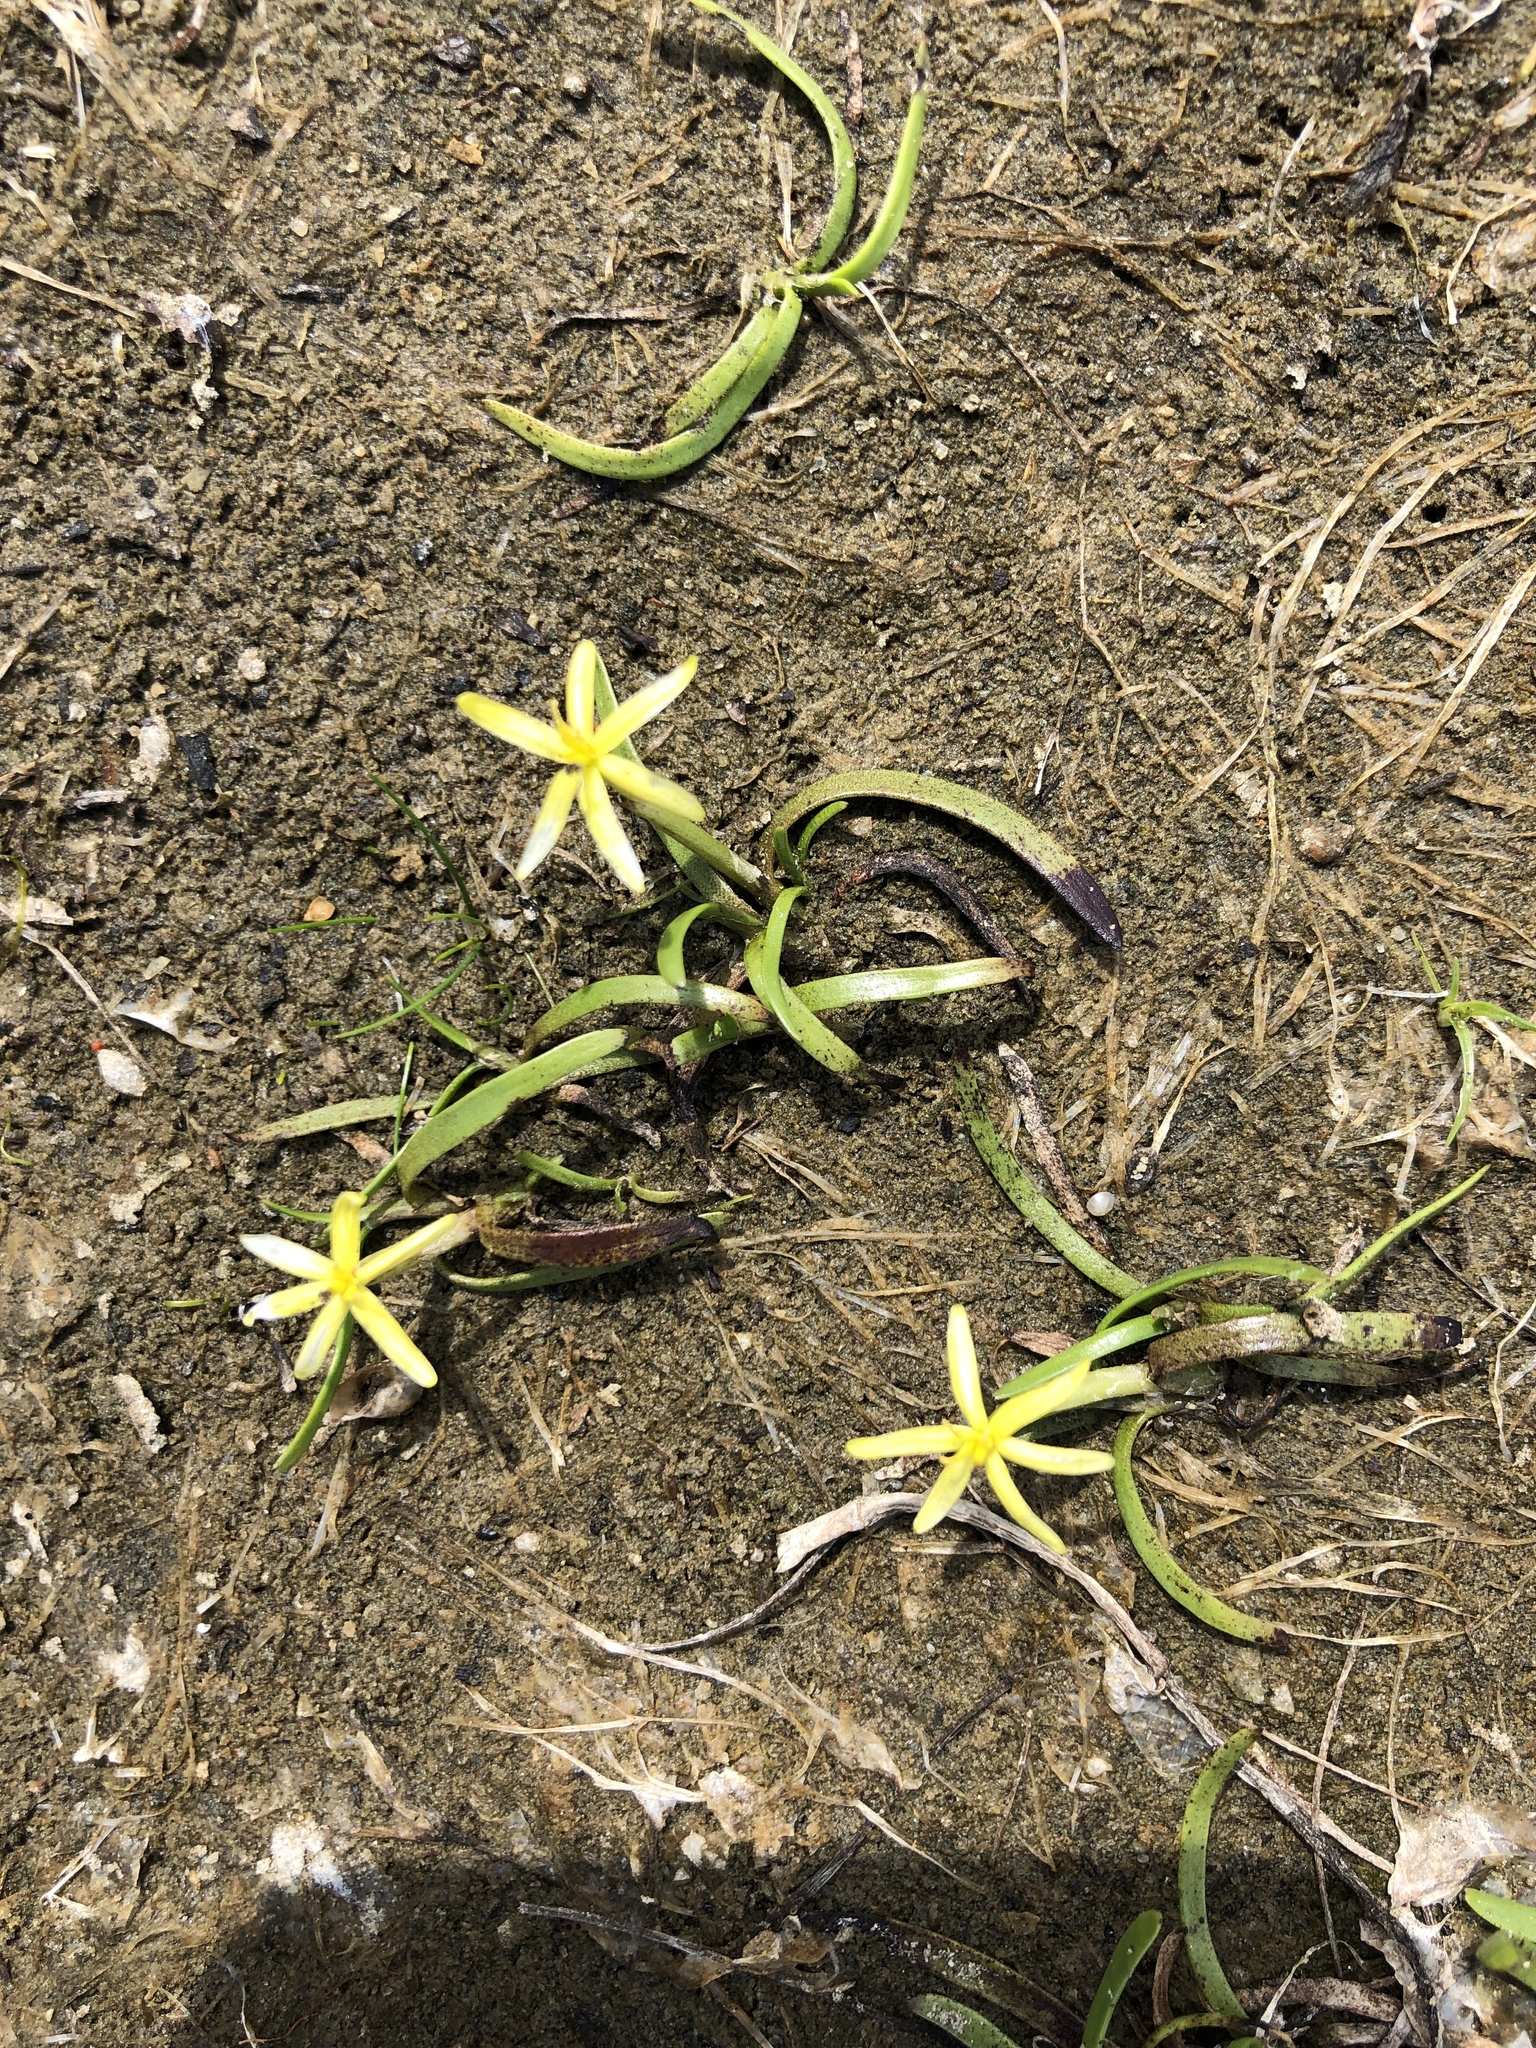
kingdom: Plantae
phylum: Tracheophyta
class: Liliopsida
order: Commelinales
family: Pontederiaceae
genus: Heteranthera
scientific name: Heteranthera dubia
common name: Grass-leaved mud plantain
